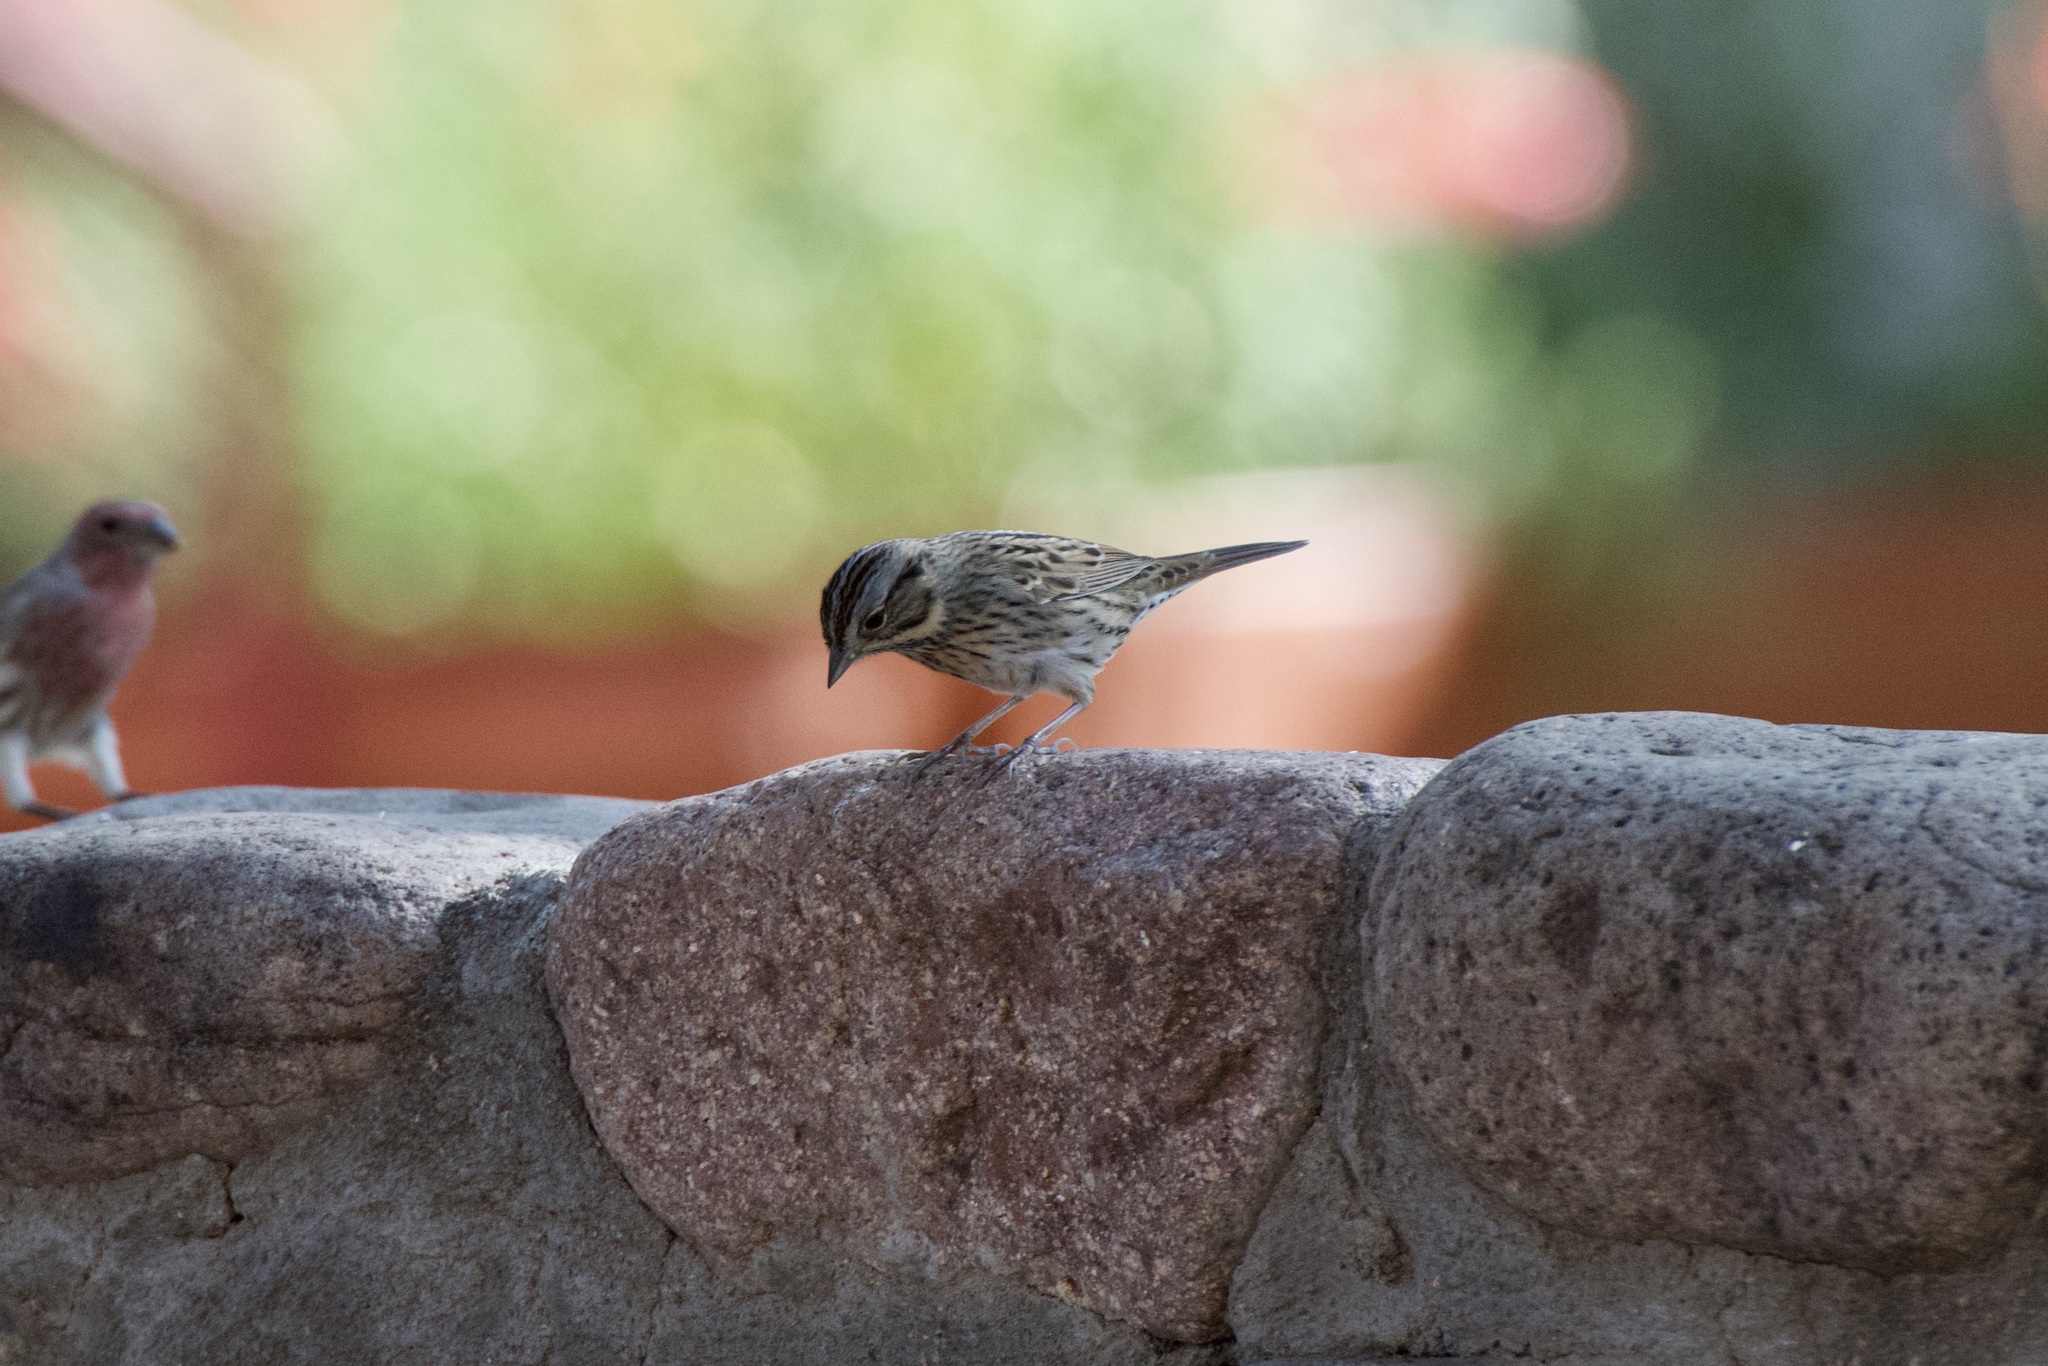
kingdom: Animalia
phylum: Chordata
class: Aves
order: Passeriformes
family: Passerellidae
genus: Melospiza
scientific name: Melospiza lincolnii
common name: Lincoln's sparrow
